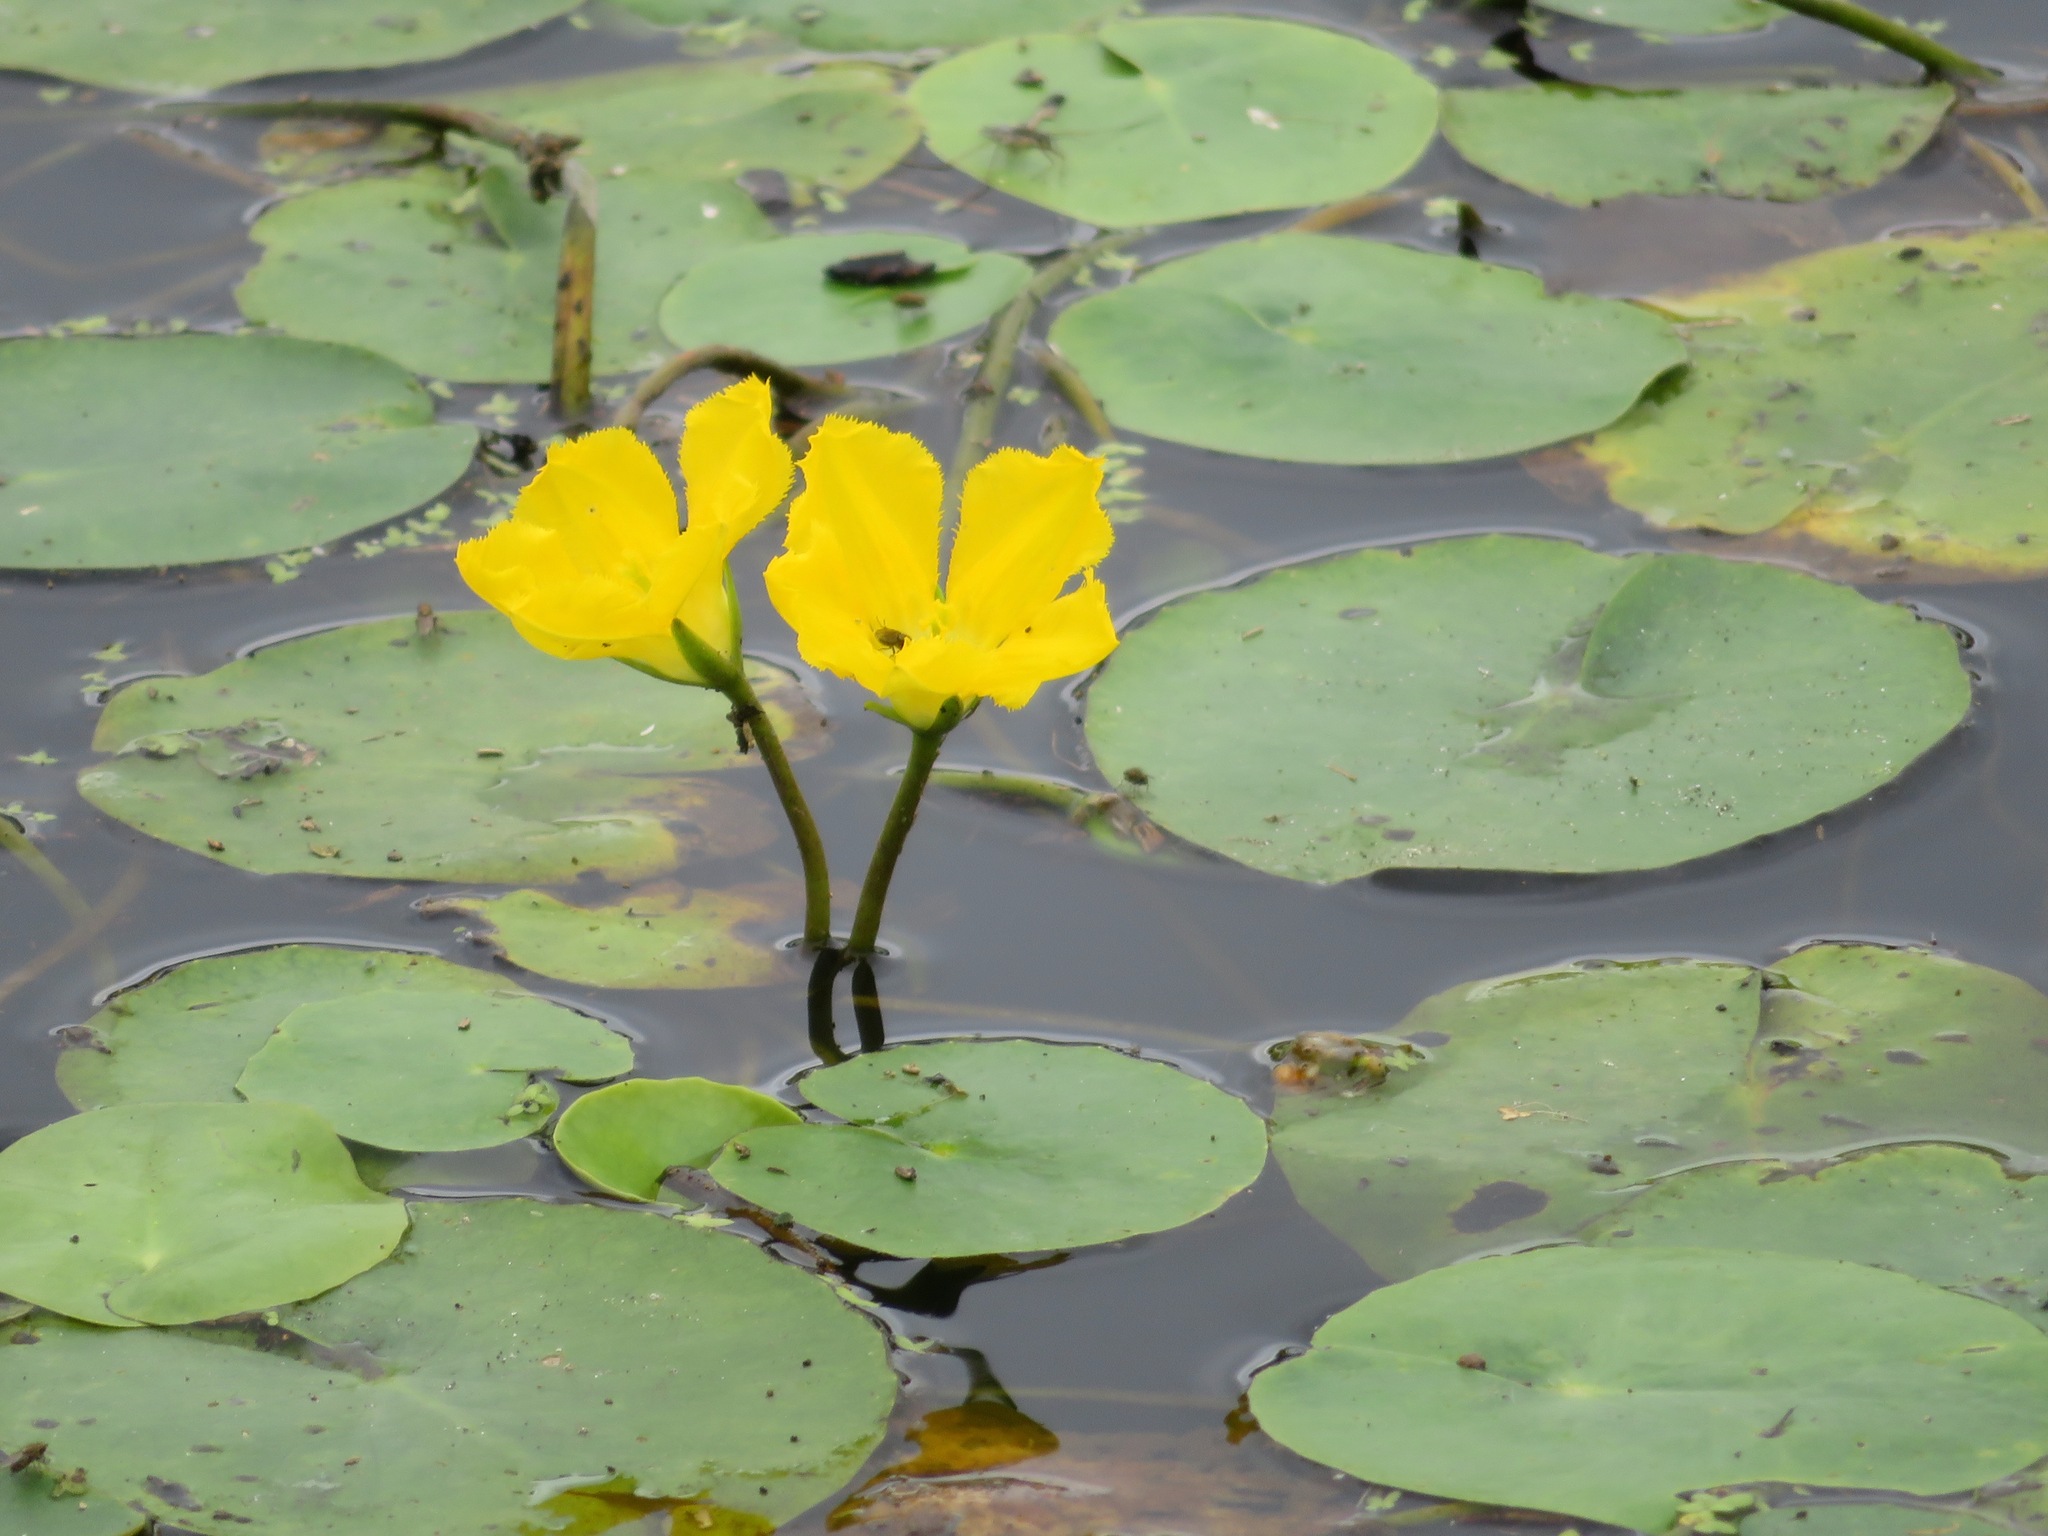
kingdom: Plantae
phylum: Tracheophyta
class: Magnoliopsida
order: Asterales
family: Menyanthaceae
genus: Nymphoides
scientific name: Nymphoides peltata
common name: Fringed water-lily
